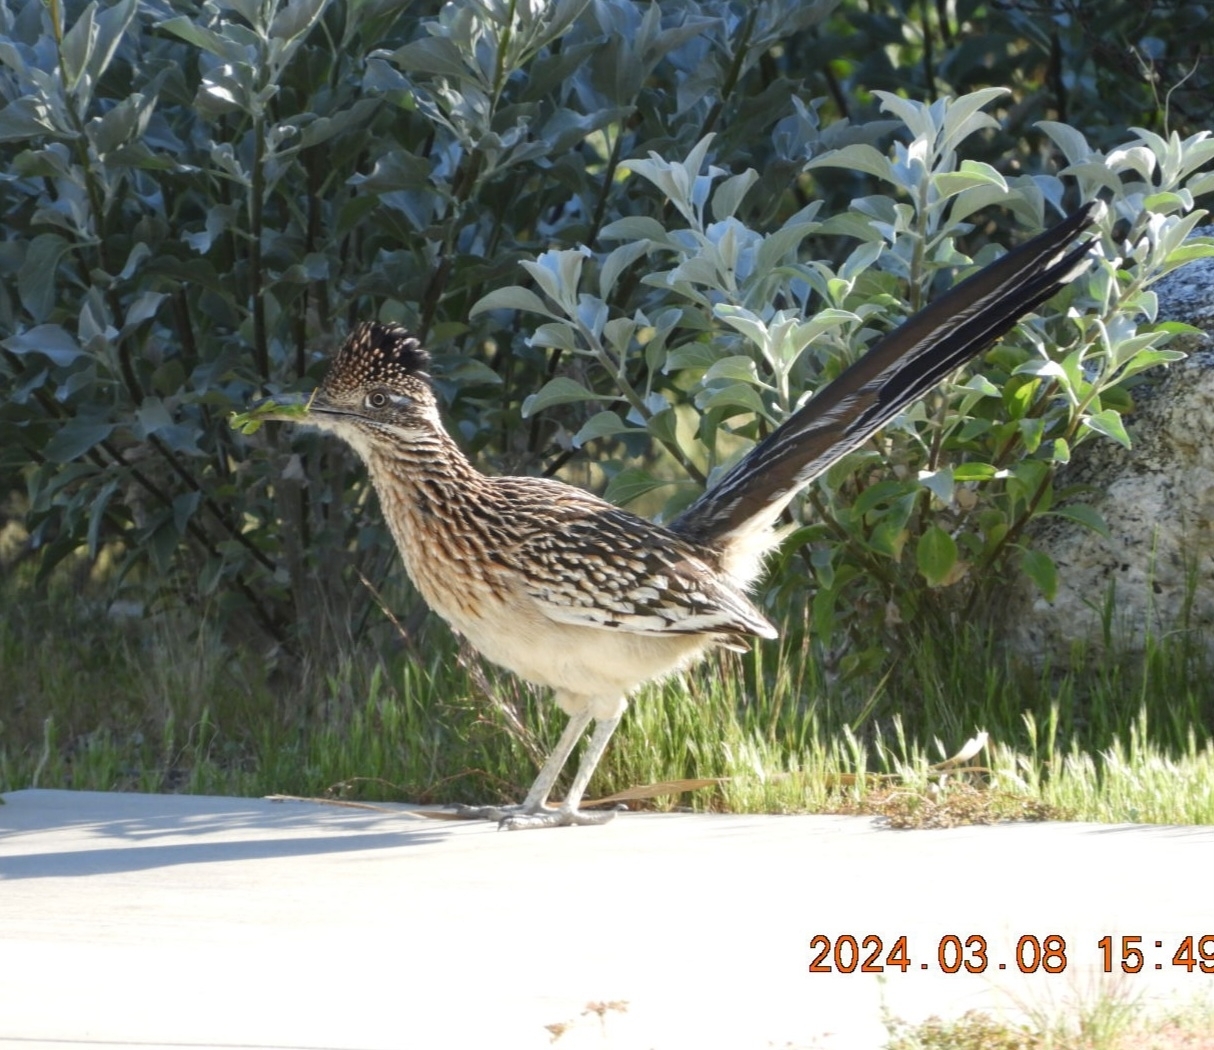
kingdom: Animalia
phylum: Chordata
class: Aves
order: Cuculiformes
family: Cuculidae
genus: Geococcyx
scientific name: Geococcyx californianus
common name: Greater roadrunner
